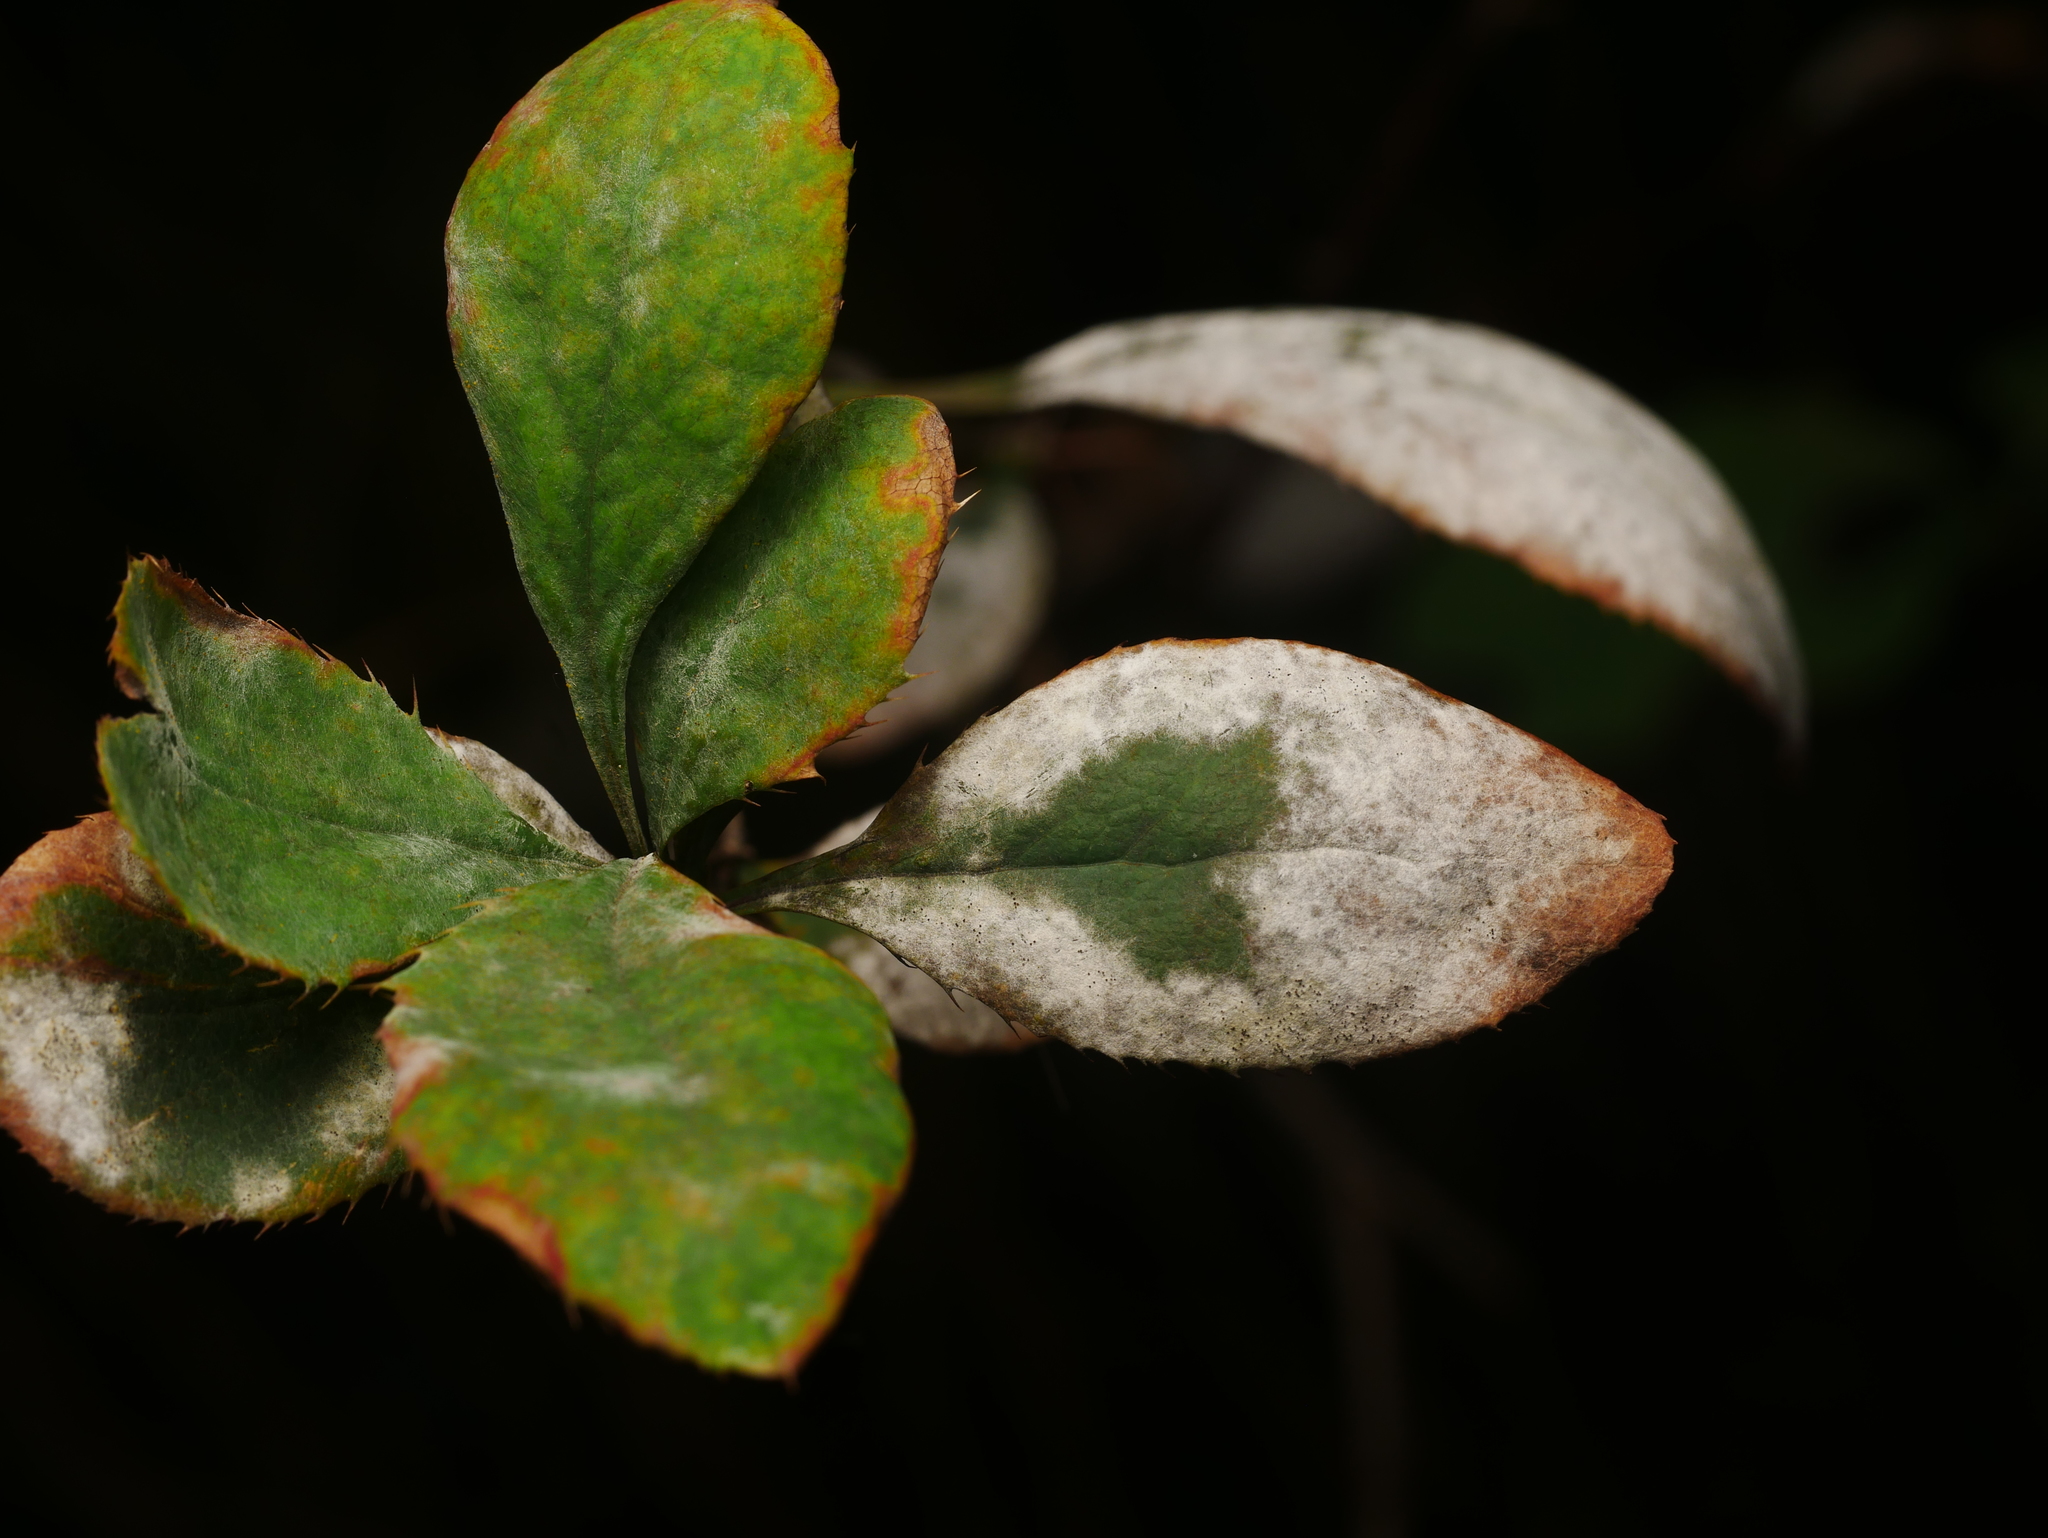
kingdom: Fungi
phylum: Ascomycota
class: Leotiomycetes
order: Helotiales
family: Erysiphaceae
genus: Erysiphe
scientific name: Erysiphe berberidis
